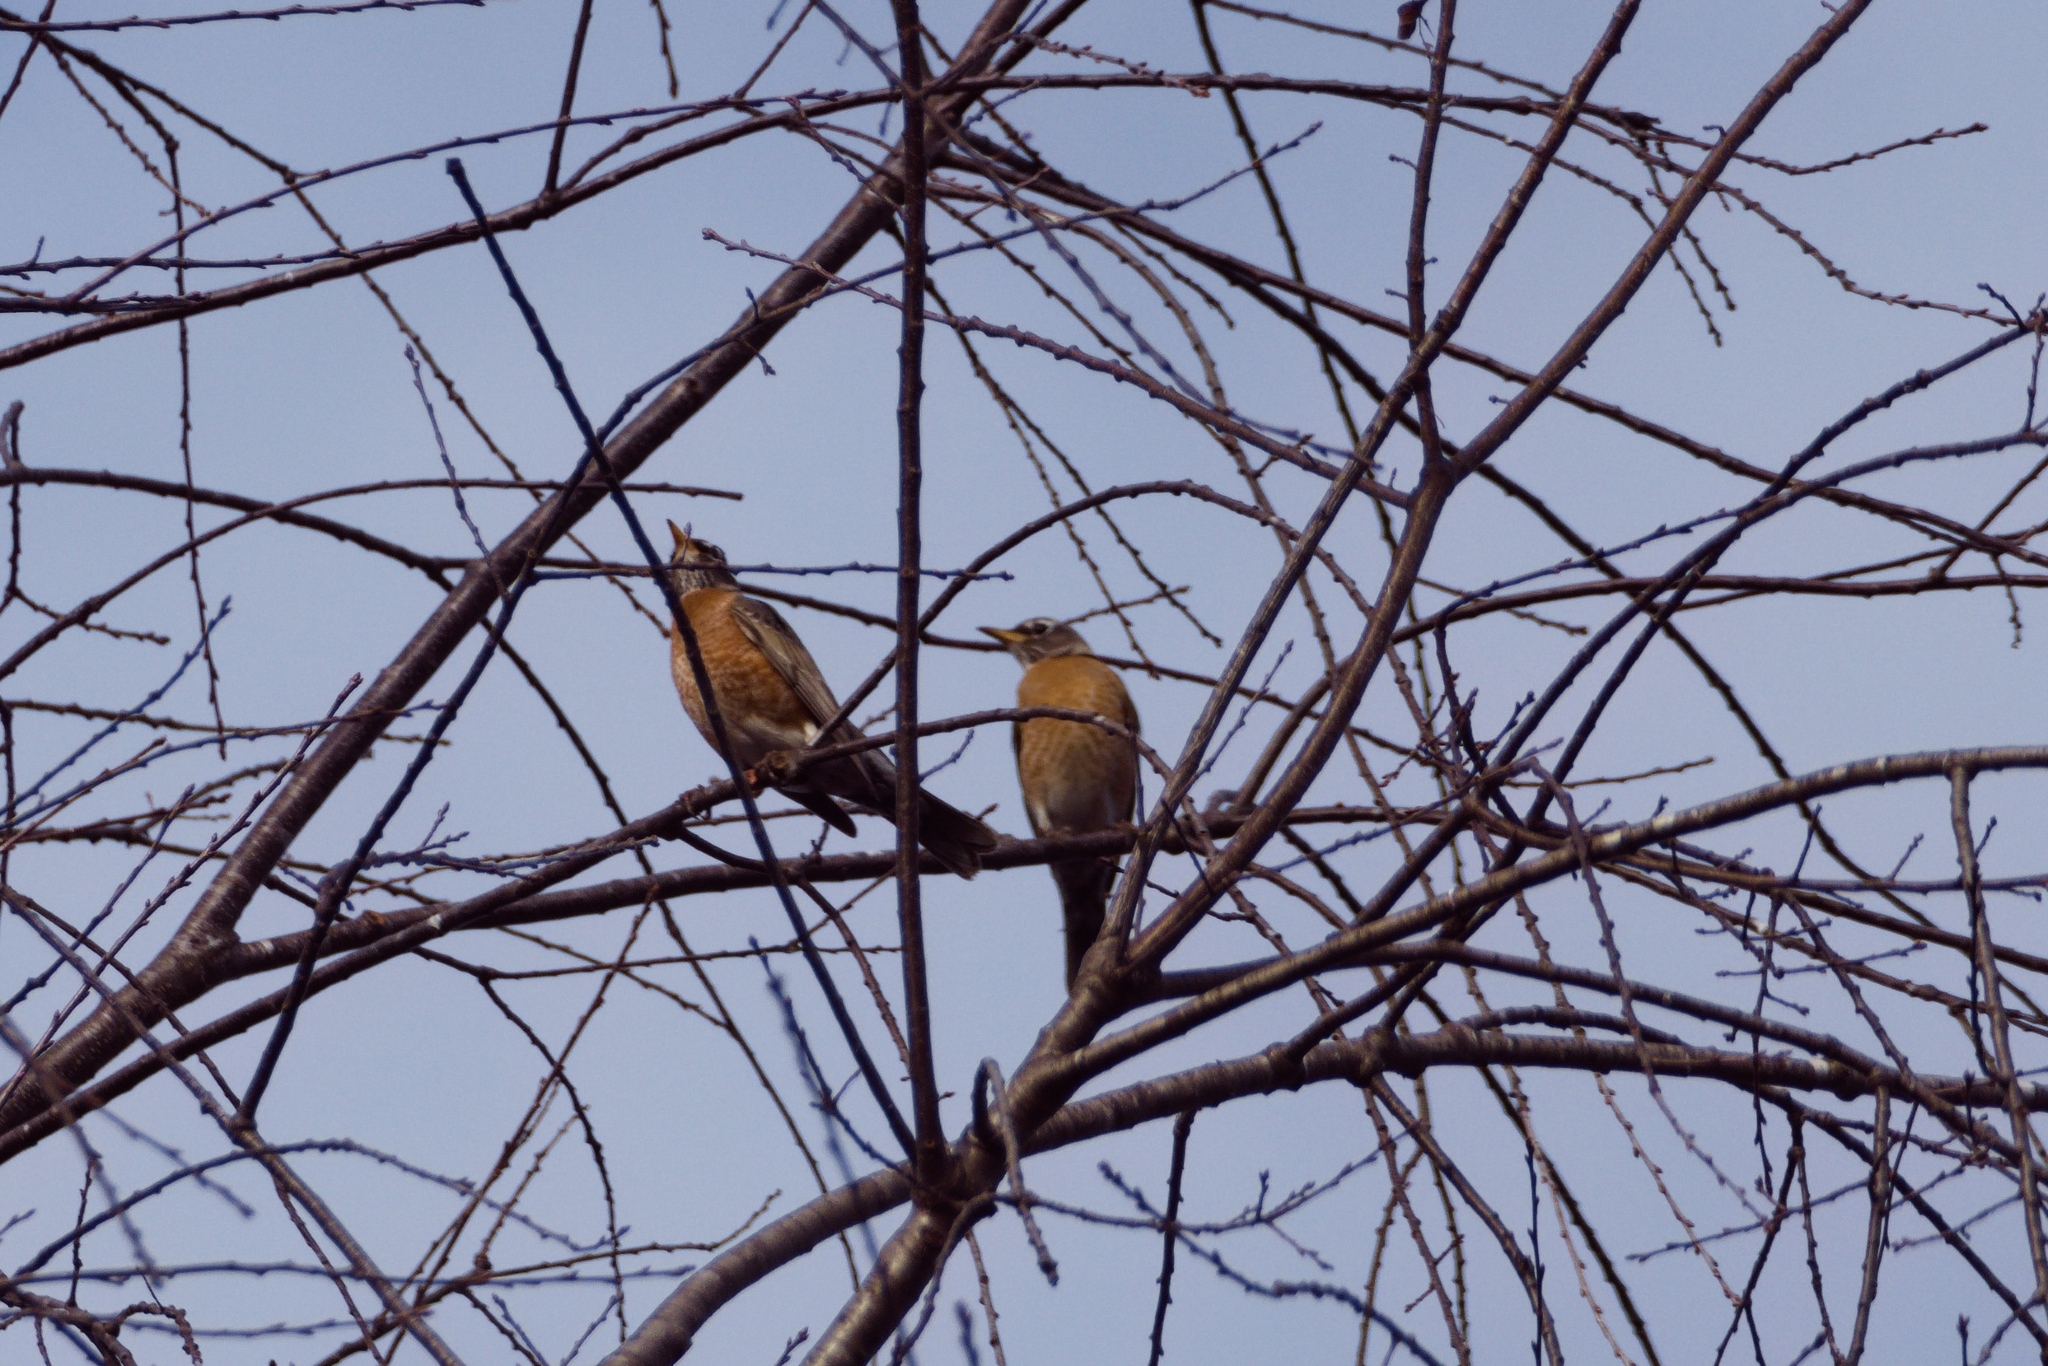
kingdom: Animalia
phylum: Chordata
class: Aves
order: Passeriformes
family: Turdidae
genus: Turdus
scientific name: Turdus migratorius
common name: American robin
